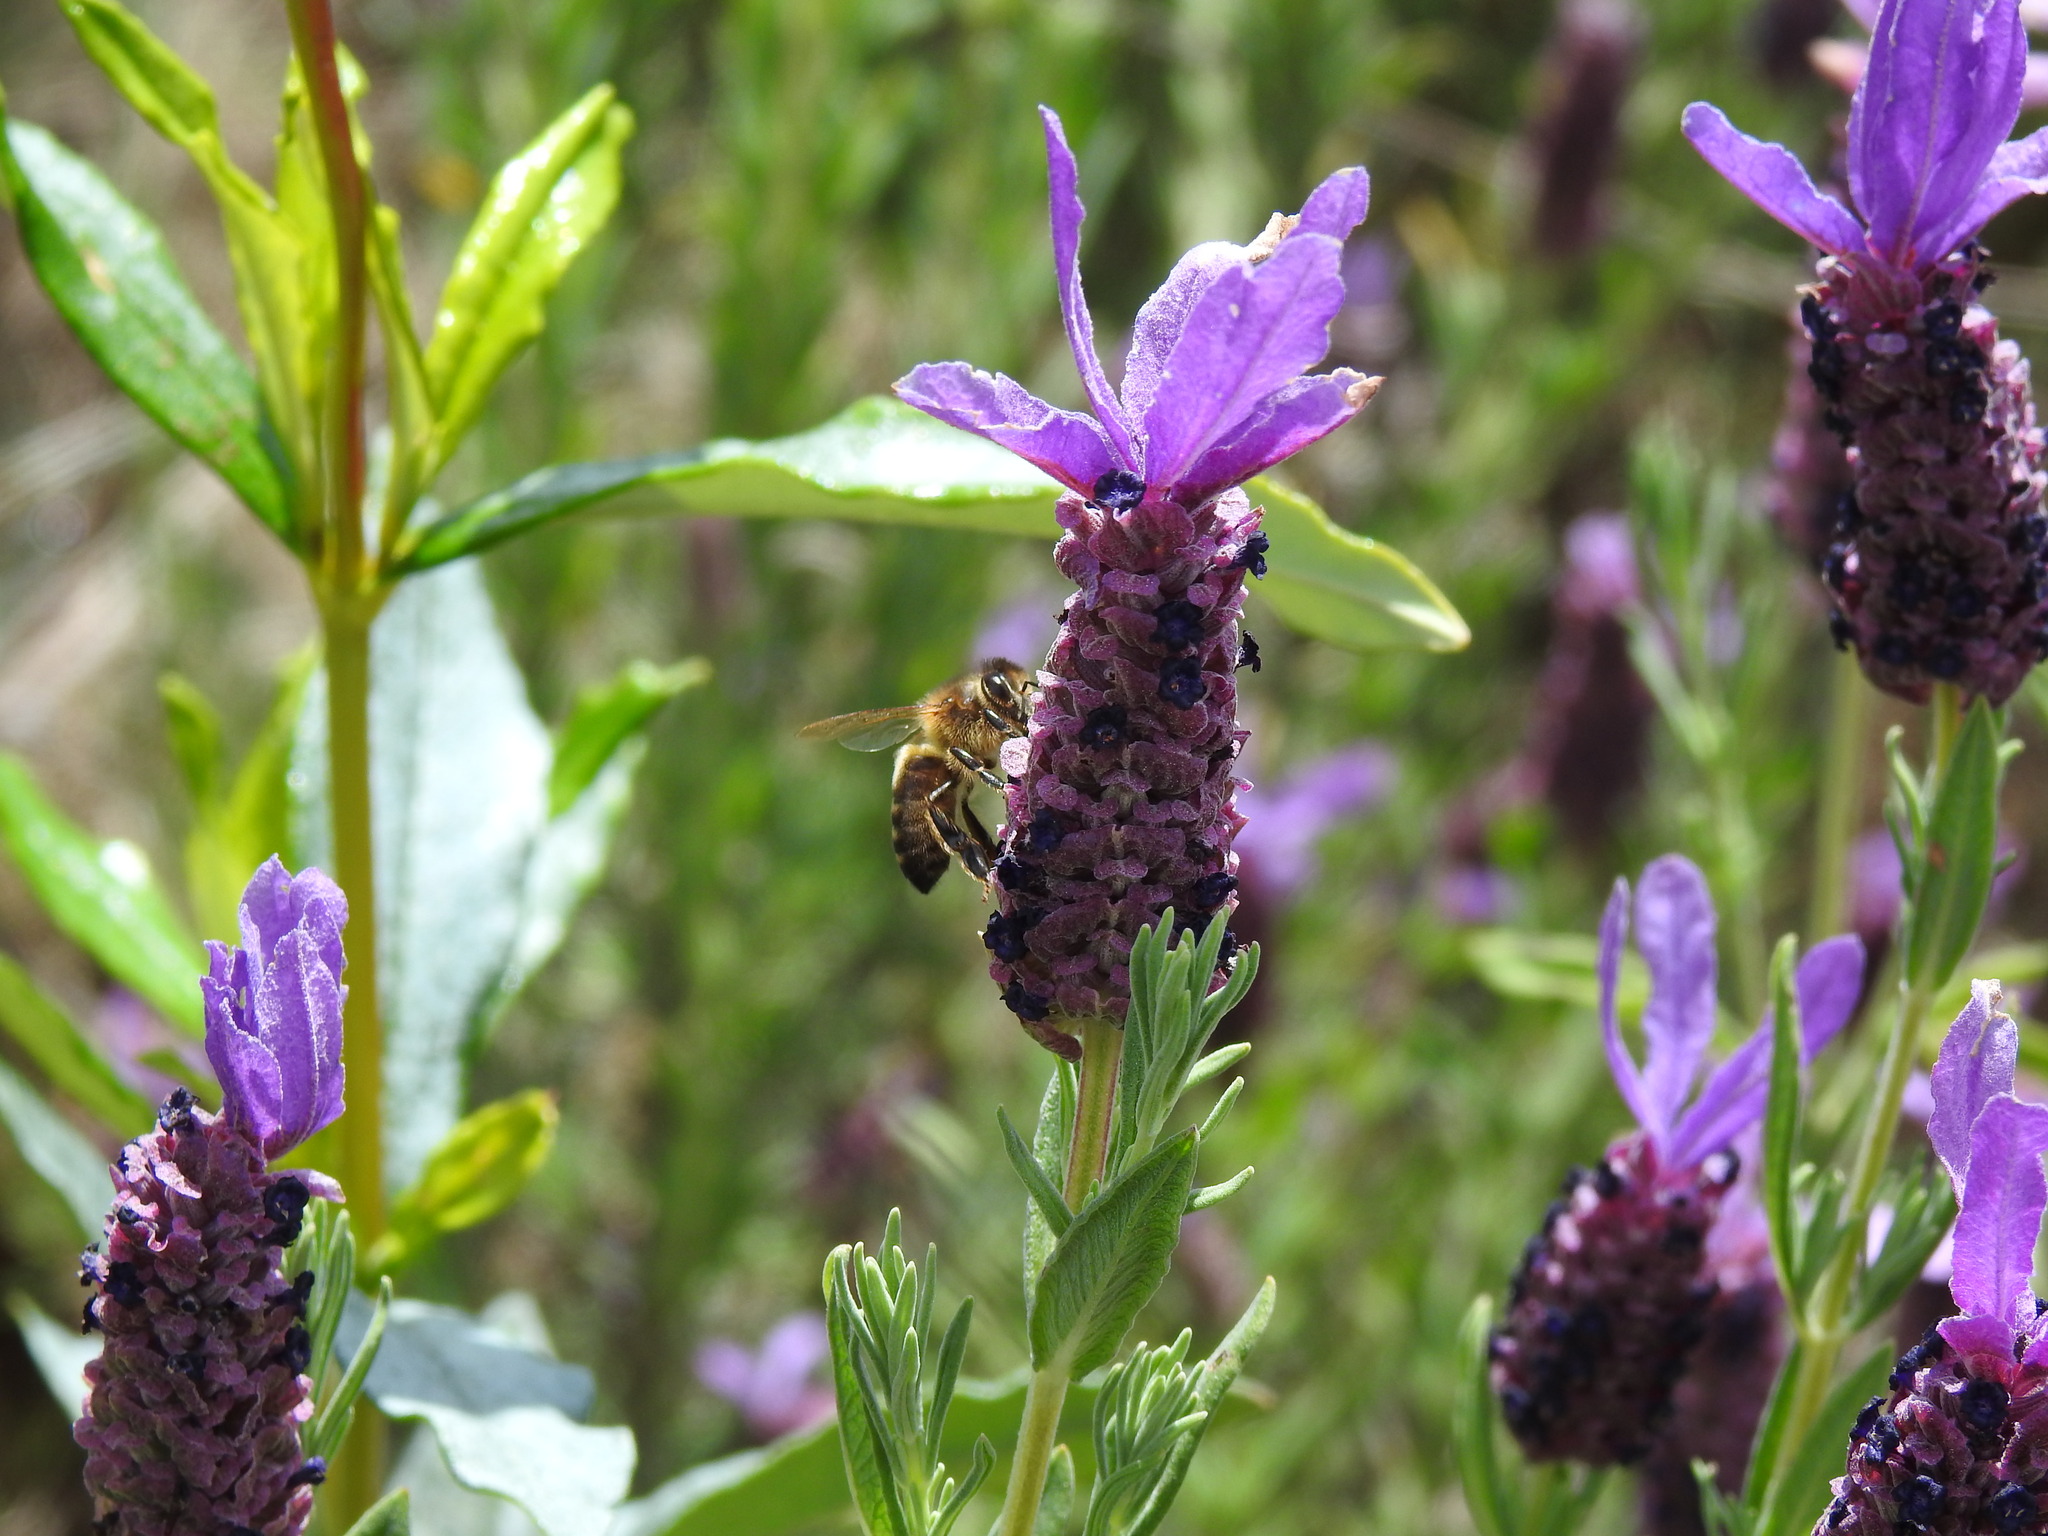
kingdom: Animalia
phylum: Arthropoda
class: Insecta
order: Hymenoptera
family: Apidae
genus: Apis
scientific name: Apis mellifera
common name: Honey bee
